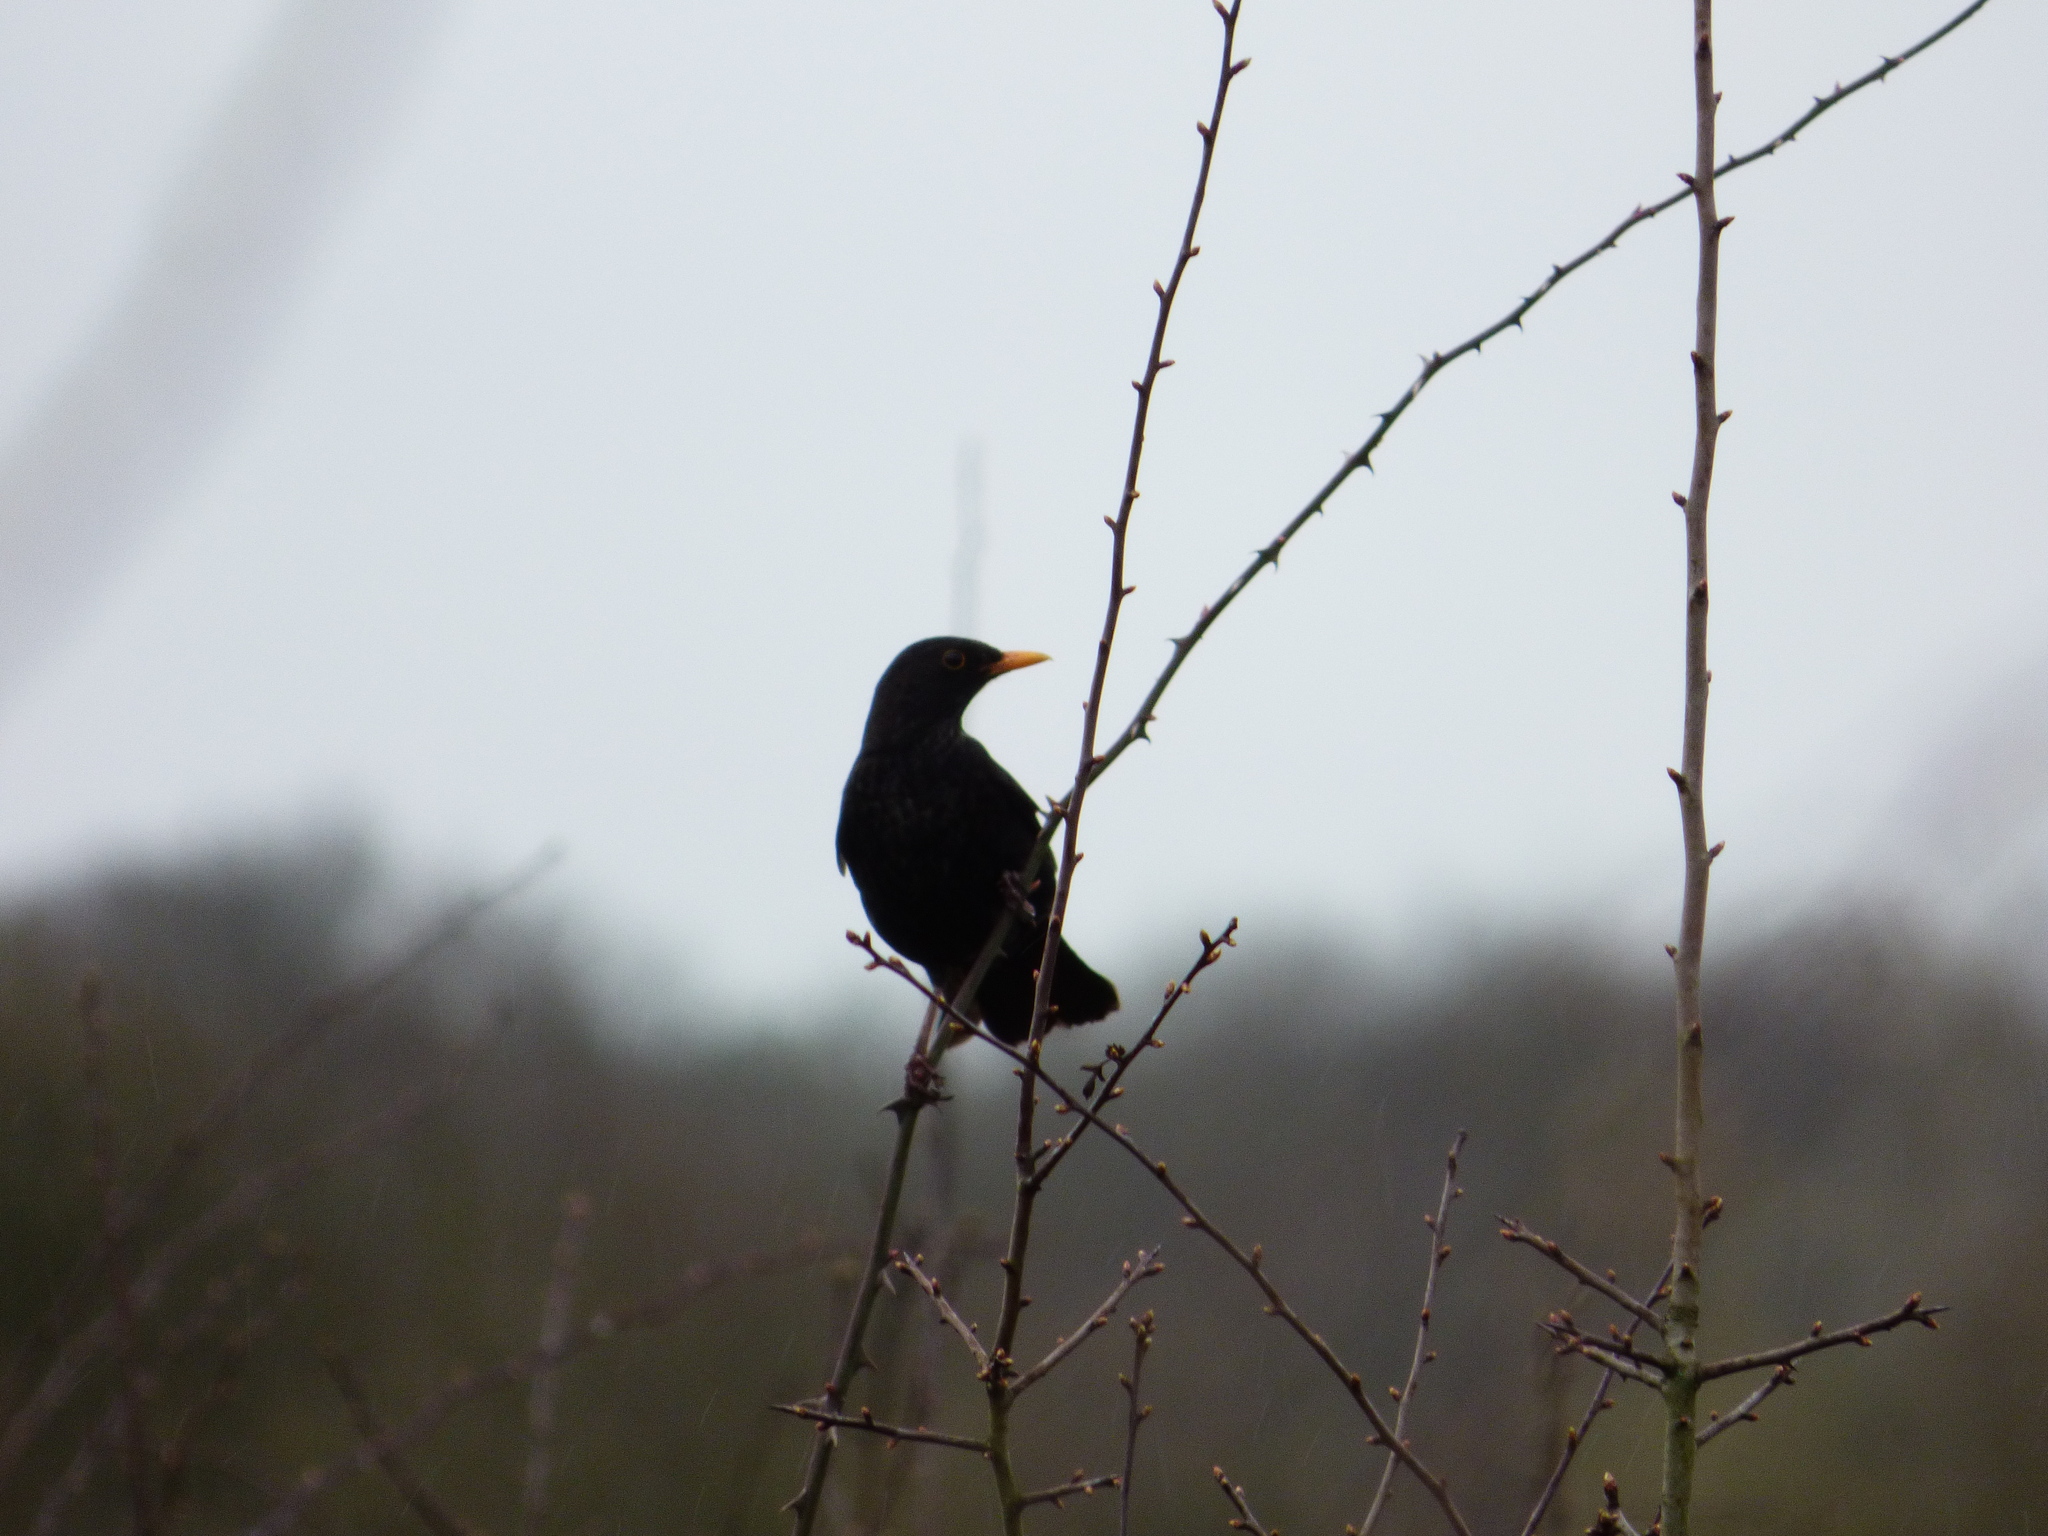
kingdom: Animalia
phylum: Chordata
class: Aves
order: Passeriformes
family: Turdidae
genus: Turdus
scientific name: Turdus merula
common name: Common blackbird
